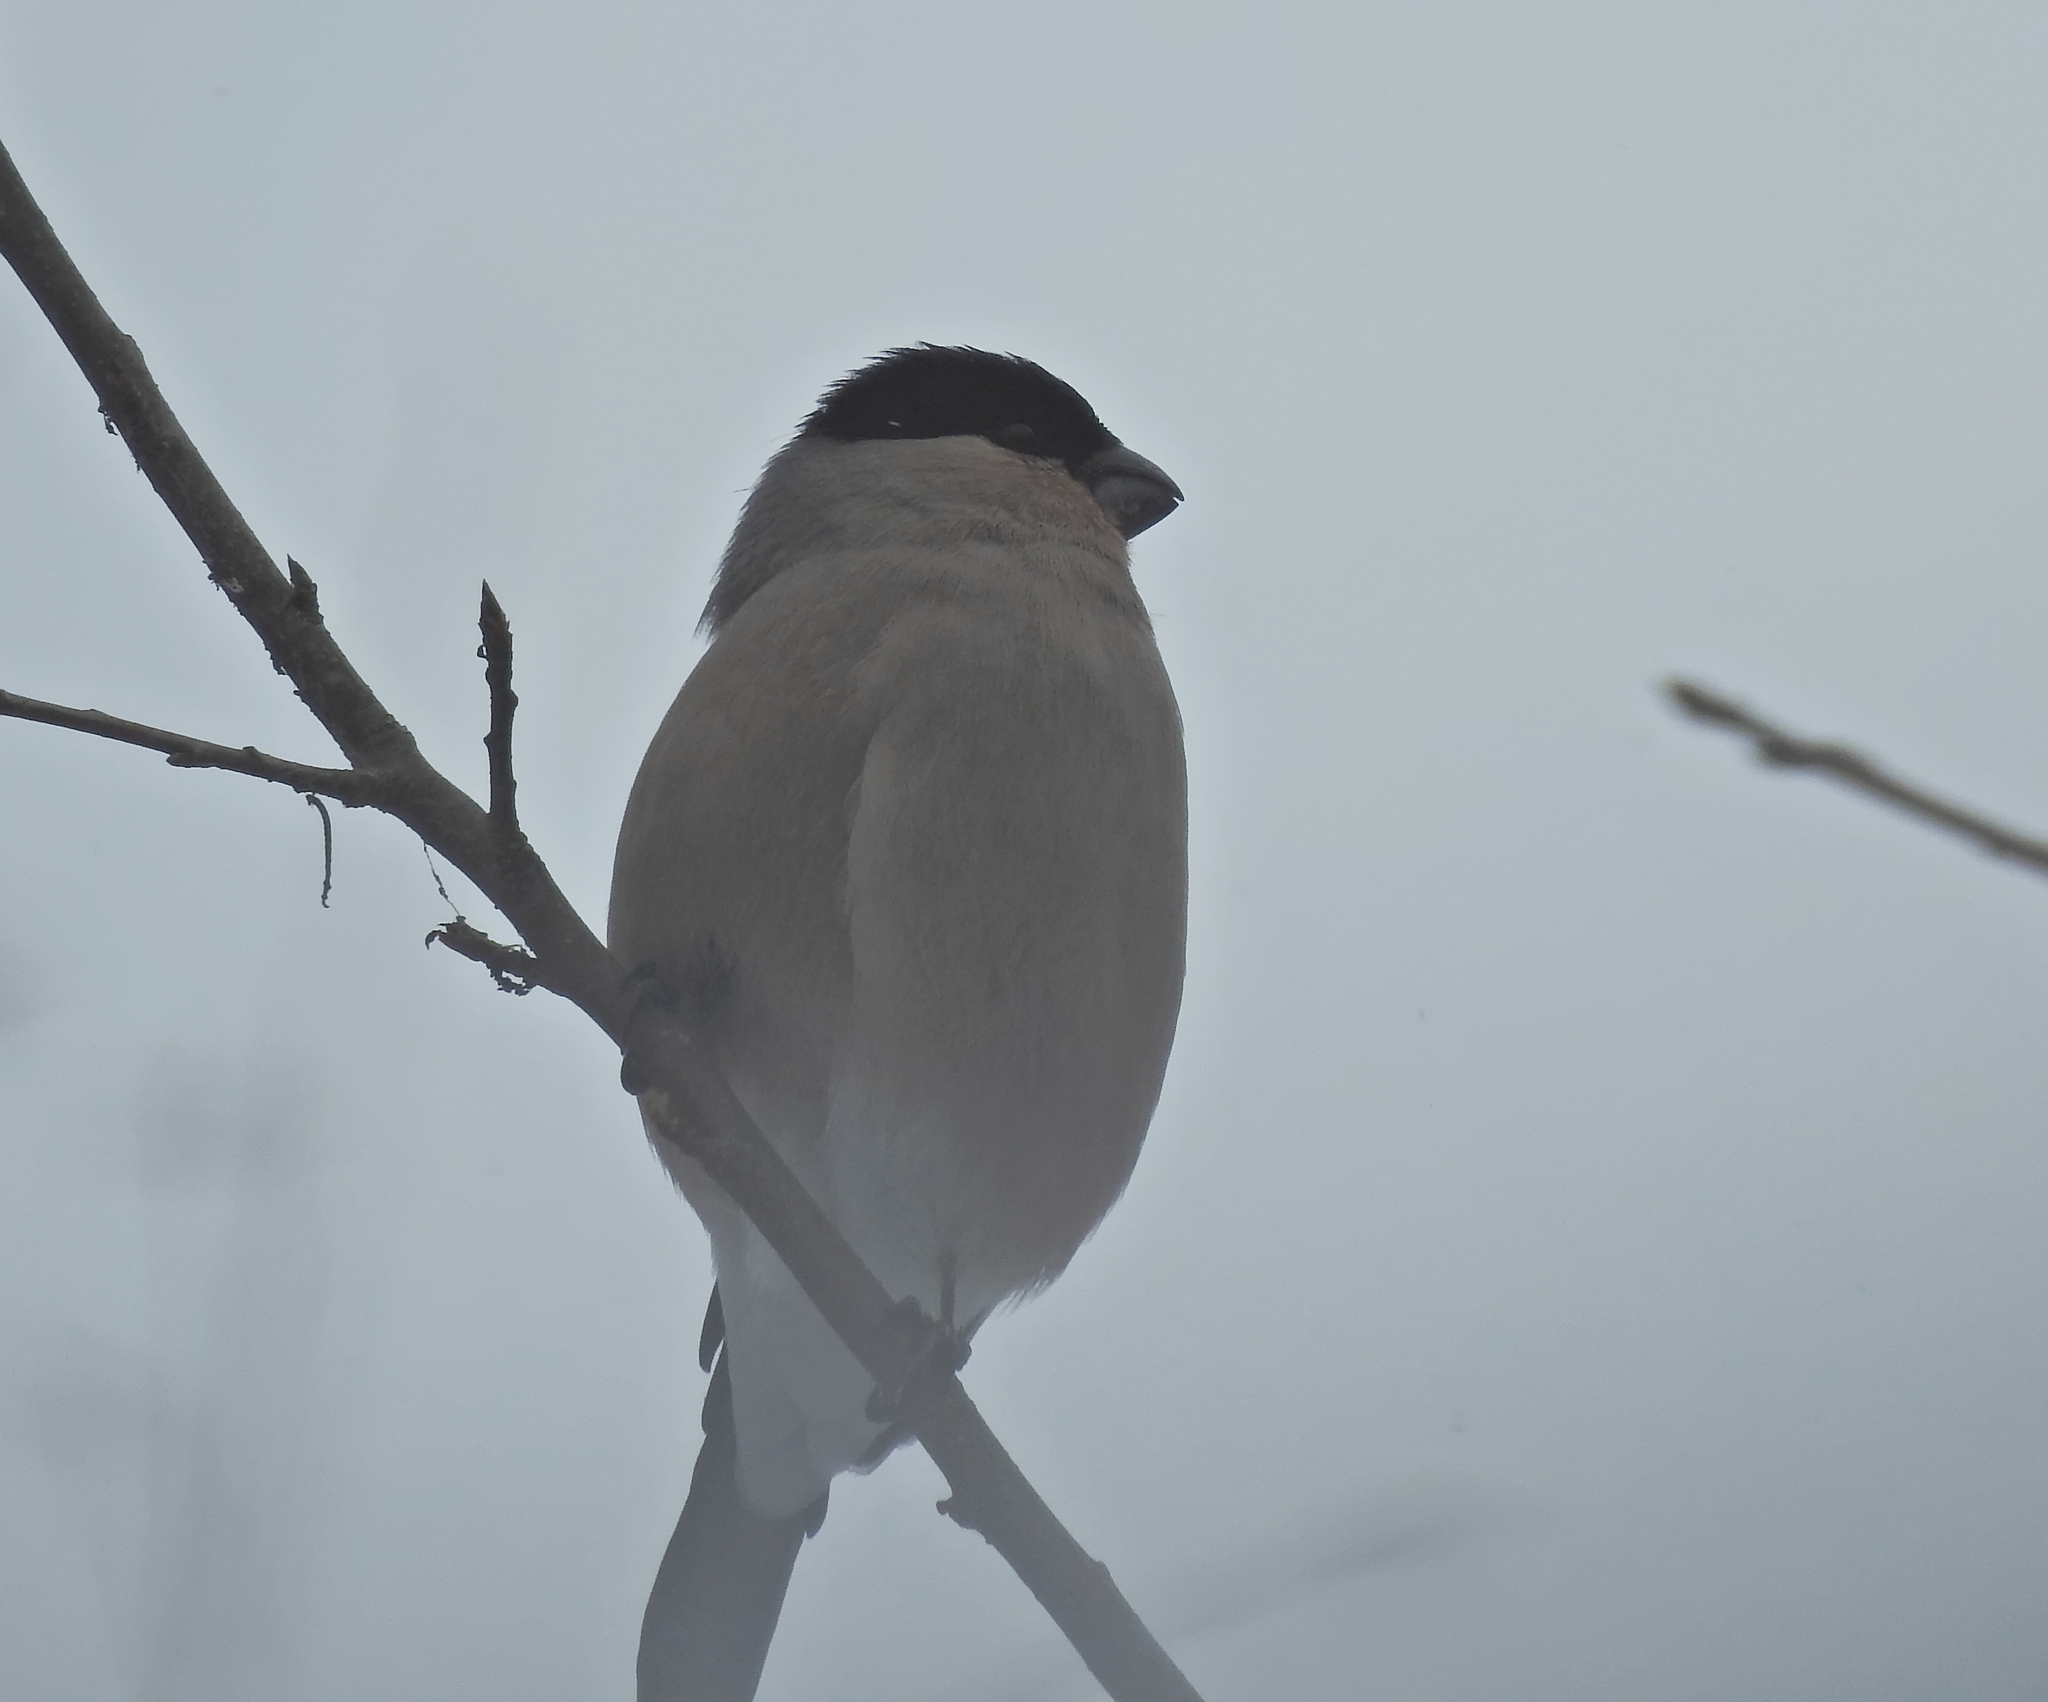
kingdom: Animalia
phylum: Chordata
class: Aves
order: Passeriformes
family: Fringillidae
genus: Pyrrhula
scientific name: Pyrrhula pyrrhula
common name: Eurasian bullfinch
